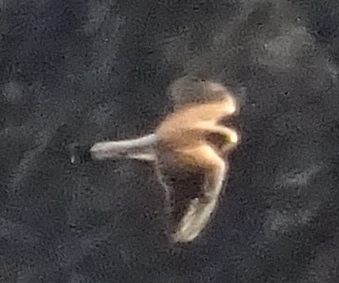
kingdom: Animalia
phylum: Chordata
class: Aves
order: Falconiformes
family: Falconidae
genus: Falco
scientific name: Falco tinnunculus
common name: Common kestrel
